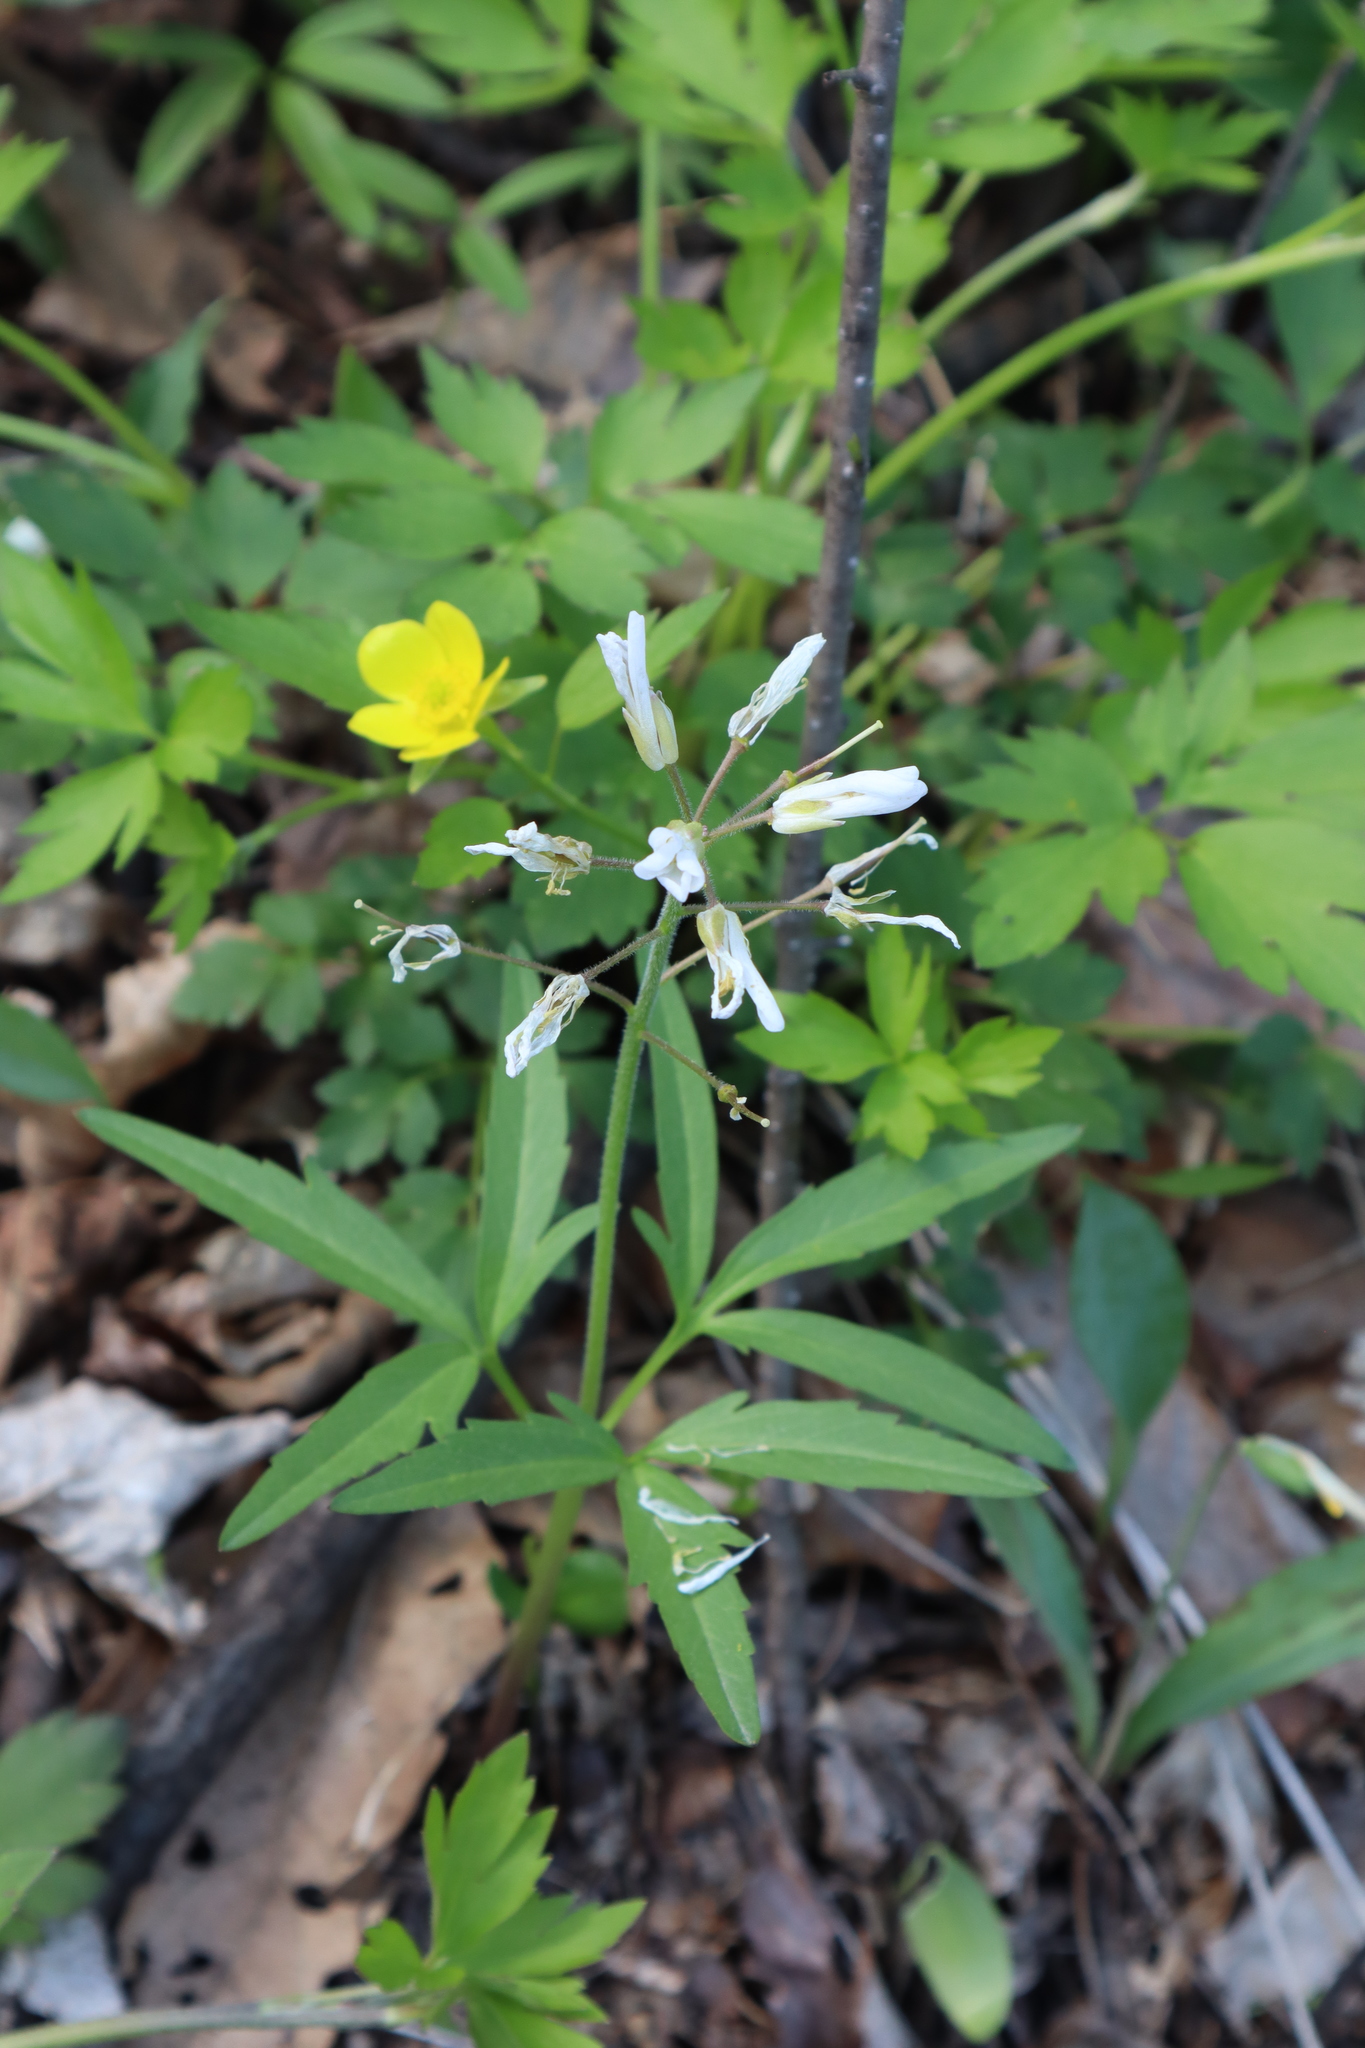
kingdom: Plantae
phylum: Tracheophyta
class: Magnoliopsida
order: Brassicales
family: Brassicaceae
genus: Cardamine
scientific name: Cardamine concatenata
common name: Cut-leaf toothcup
